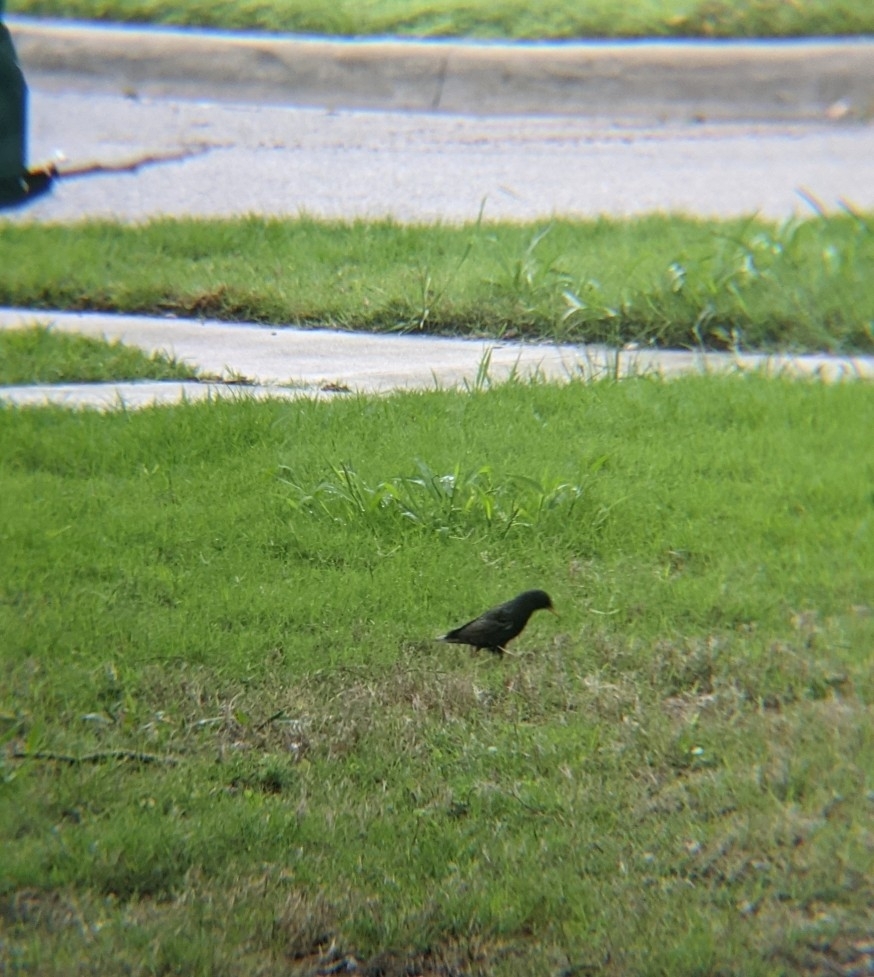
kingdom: Animalia
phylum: Chordata
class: Aves
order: Passeriformes
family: Sturnidae
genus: Sturnus
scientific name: Sturnus vulgaris
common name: Common starling
